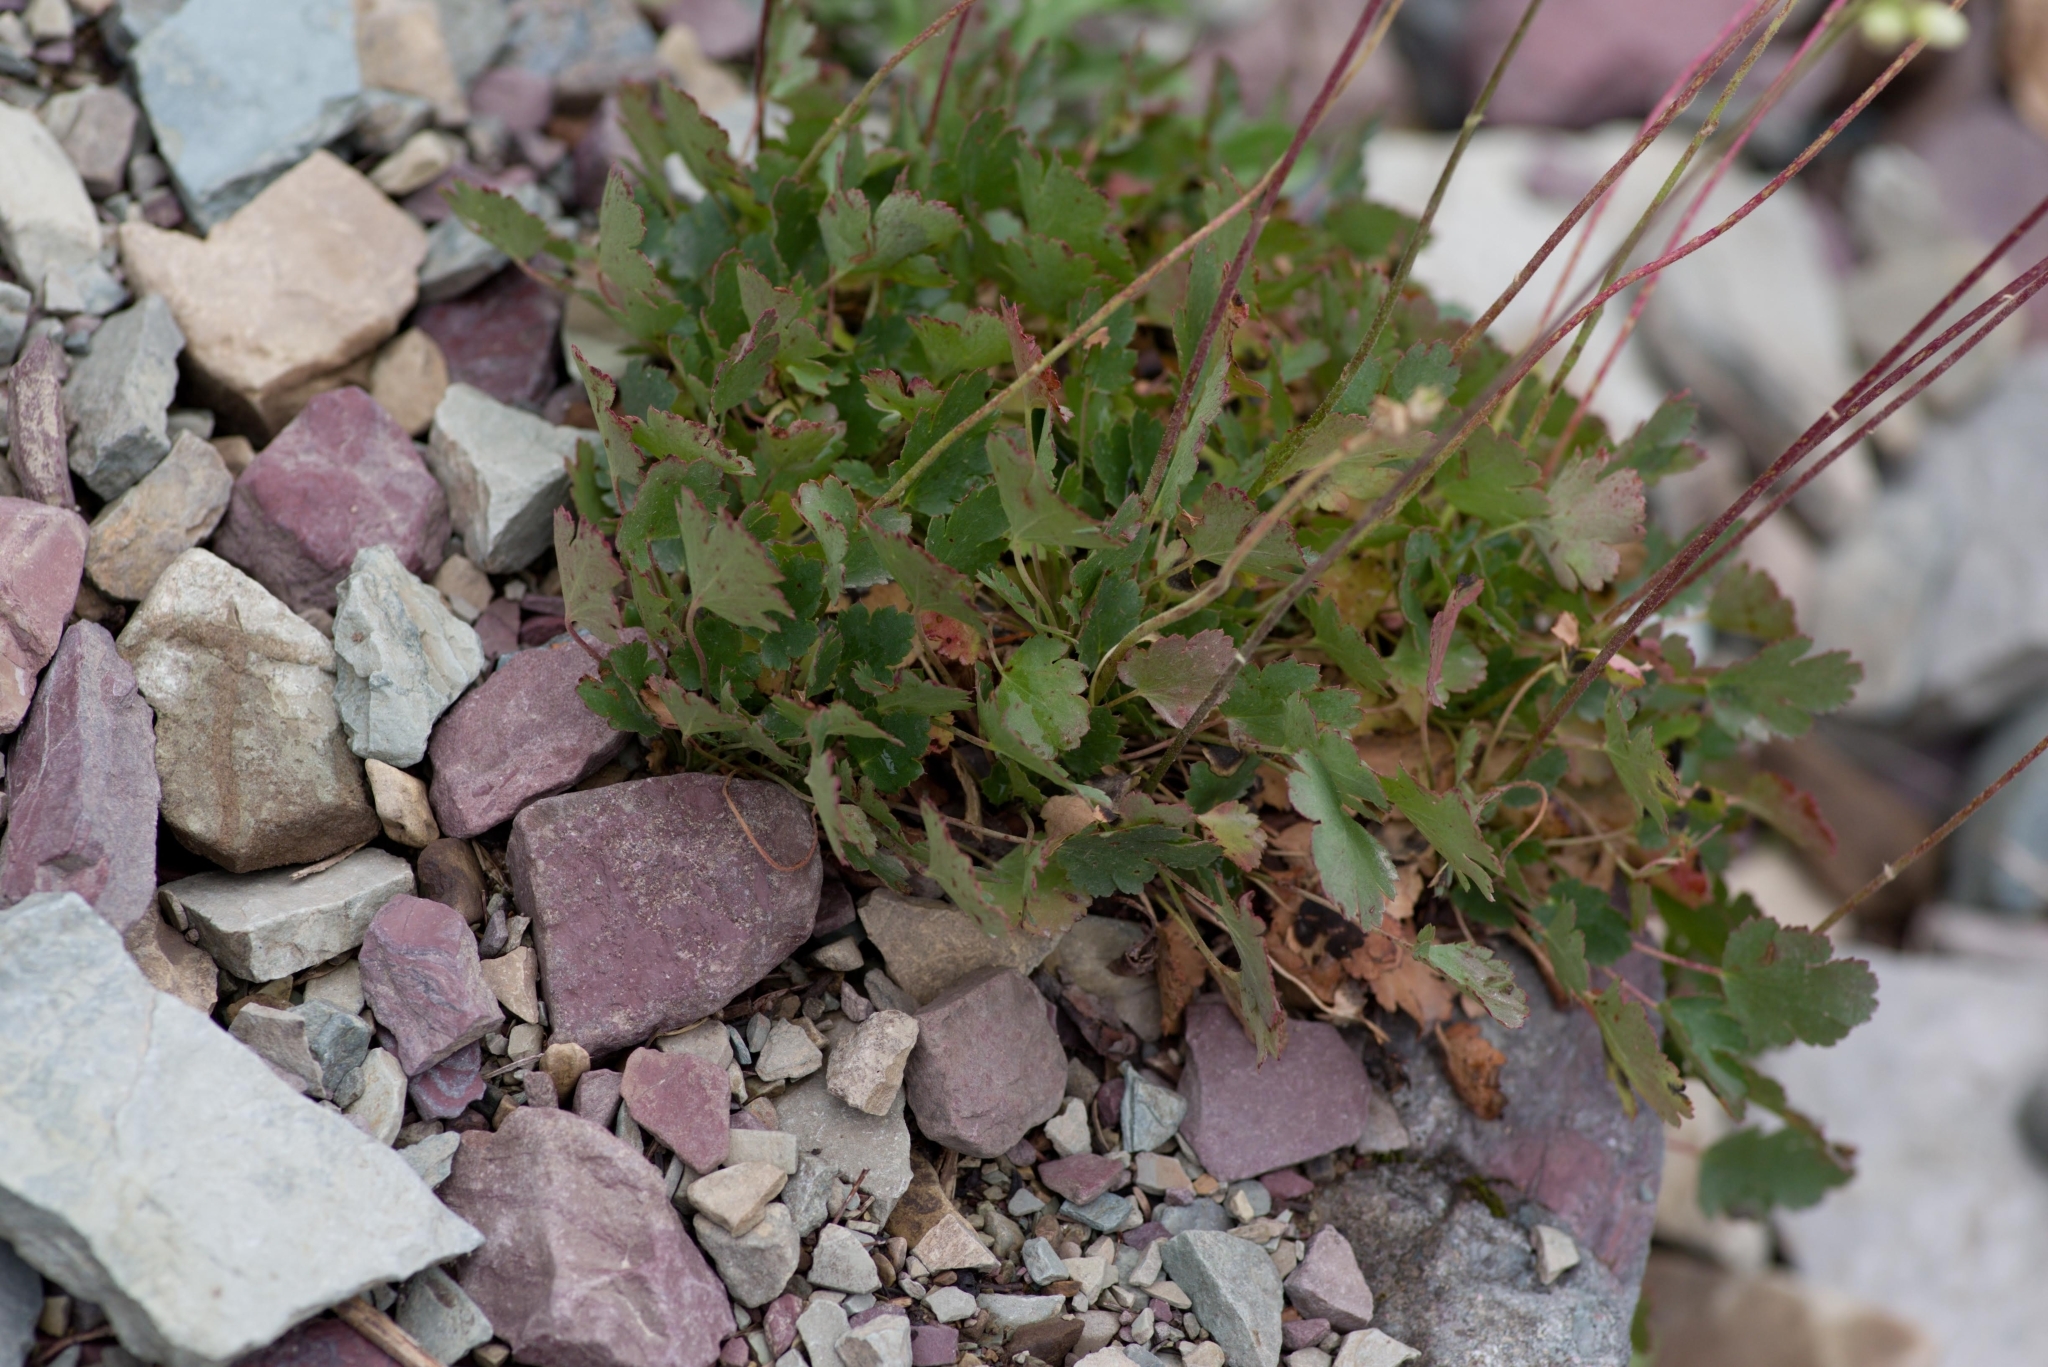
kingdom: Plantae
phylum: Tracheophyta
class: Magnoliopsida
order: Saxifragales
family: Saxifragaceae
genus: Heuchera
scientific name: Heuchera cylindrica
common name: Mat alumroot
